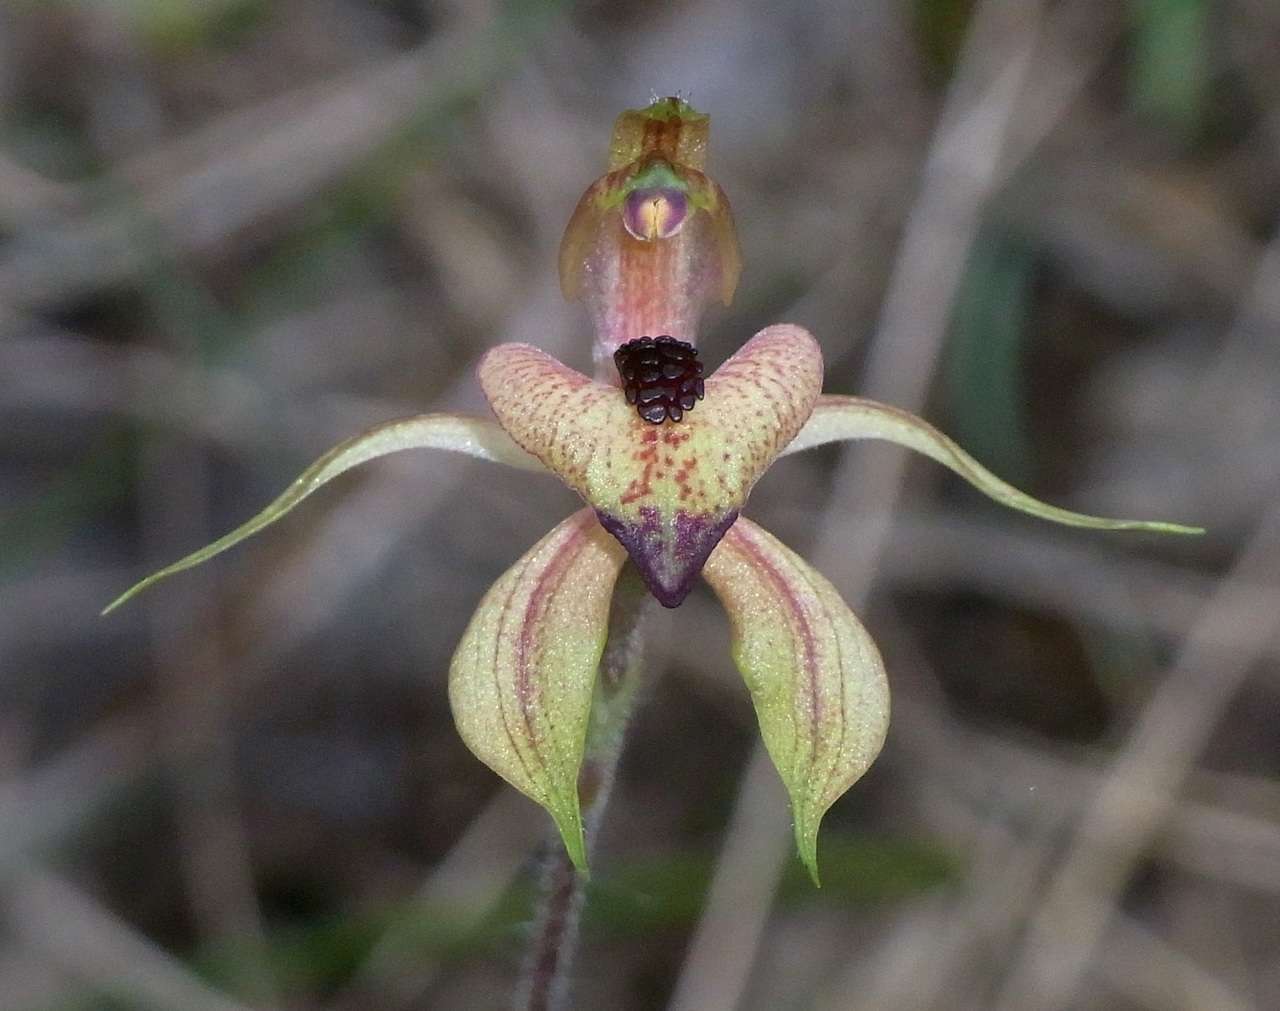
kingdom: Plantae
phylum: Tracheophyta
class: Liliopsida
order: Asparagales
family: Orchidaceae
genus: Caladenia
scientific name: Caladenia cardiochila
